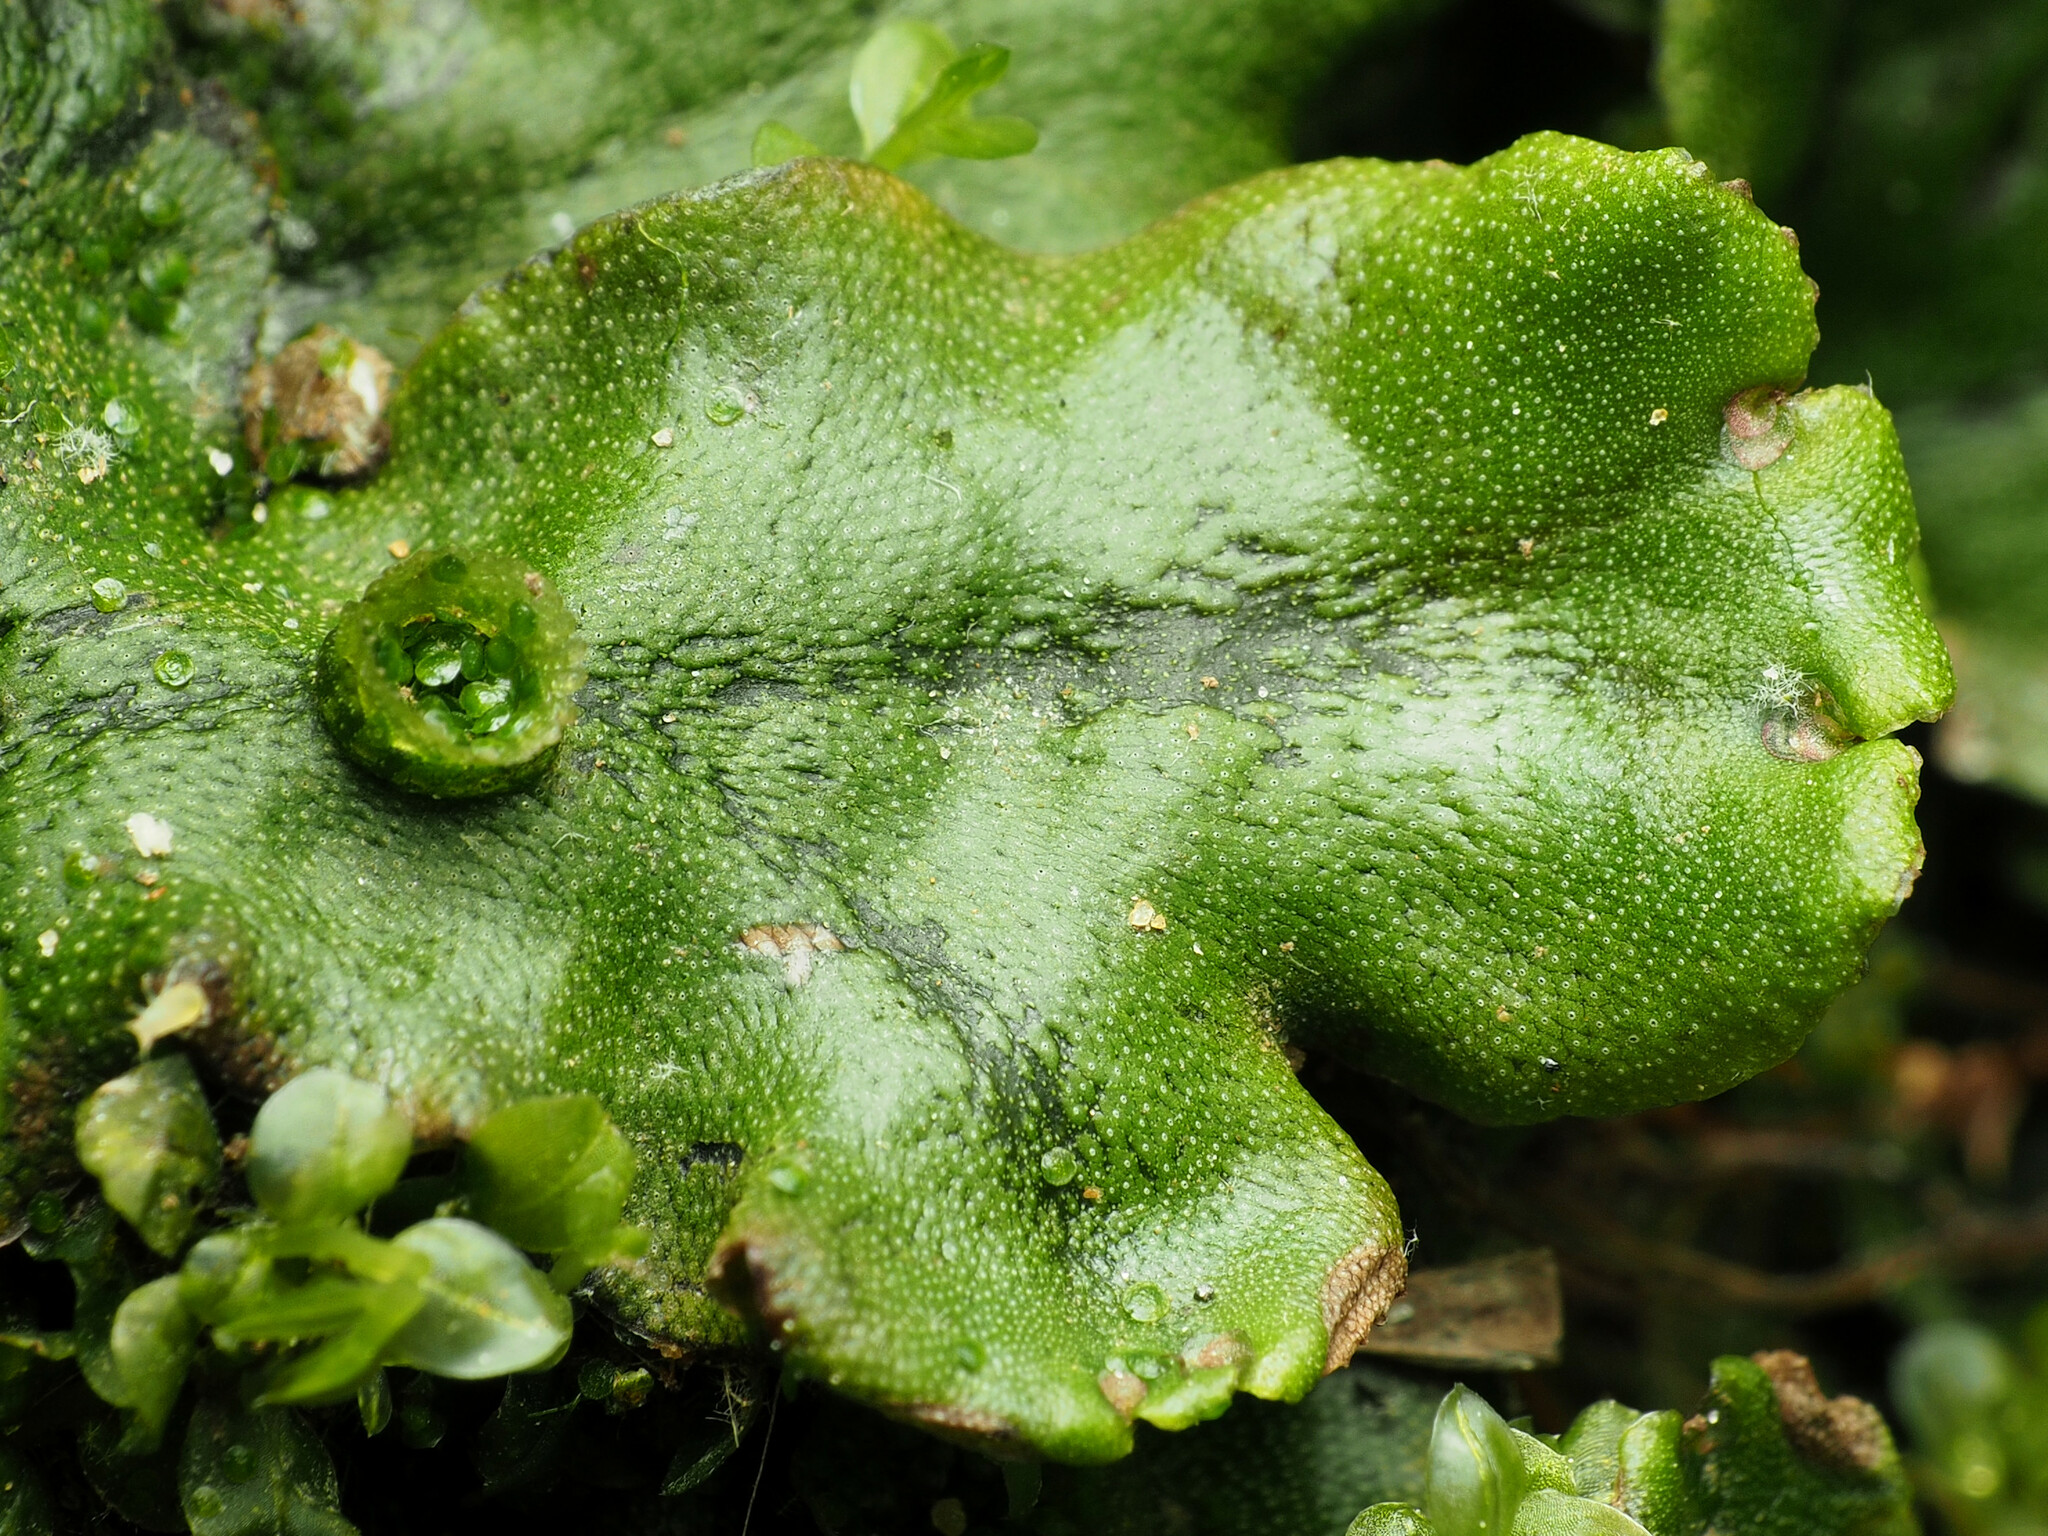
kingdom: Plantae
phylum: Marchantiophyta
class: Marchantiopsida
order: Marchantiales
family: Marchantiaceae
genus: Marchantia
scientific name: Marchantia polymorpha
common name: Common liverwort
